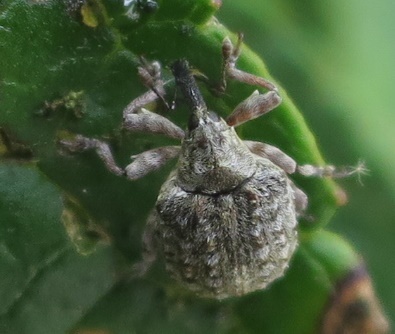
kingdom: Animalia
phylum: Arthropoda
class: Insecta
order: Coleoptera
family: Curculionidae
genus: Cleopus
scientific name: Cleopus japonicus
